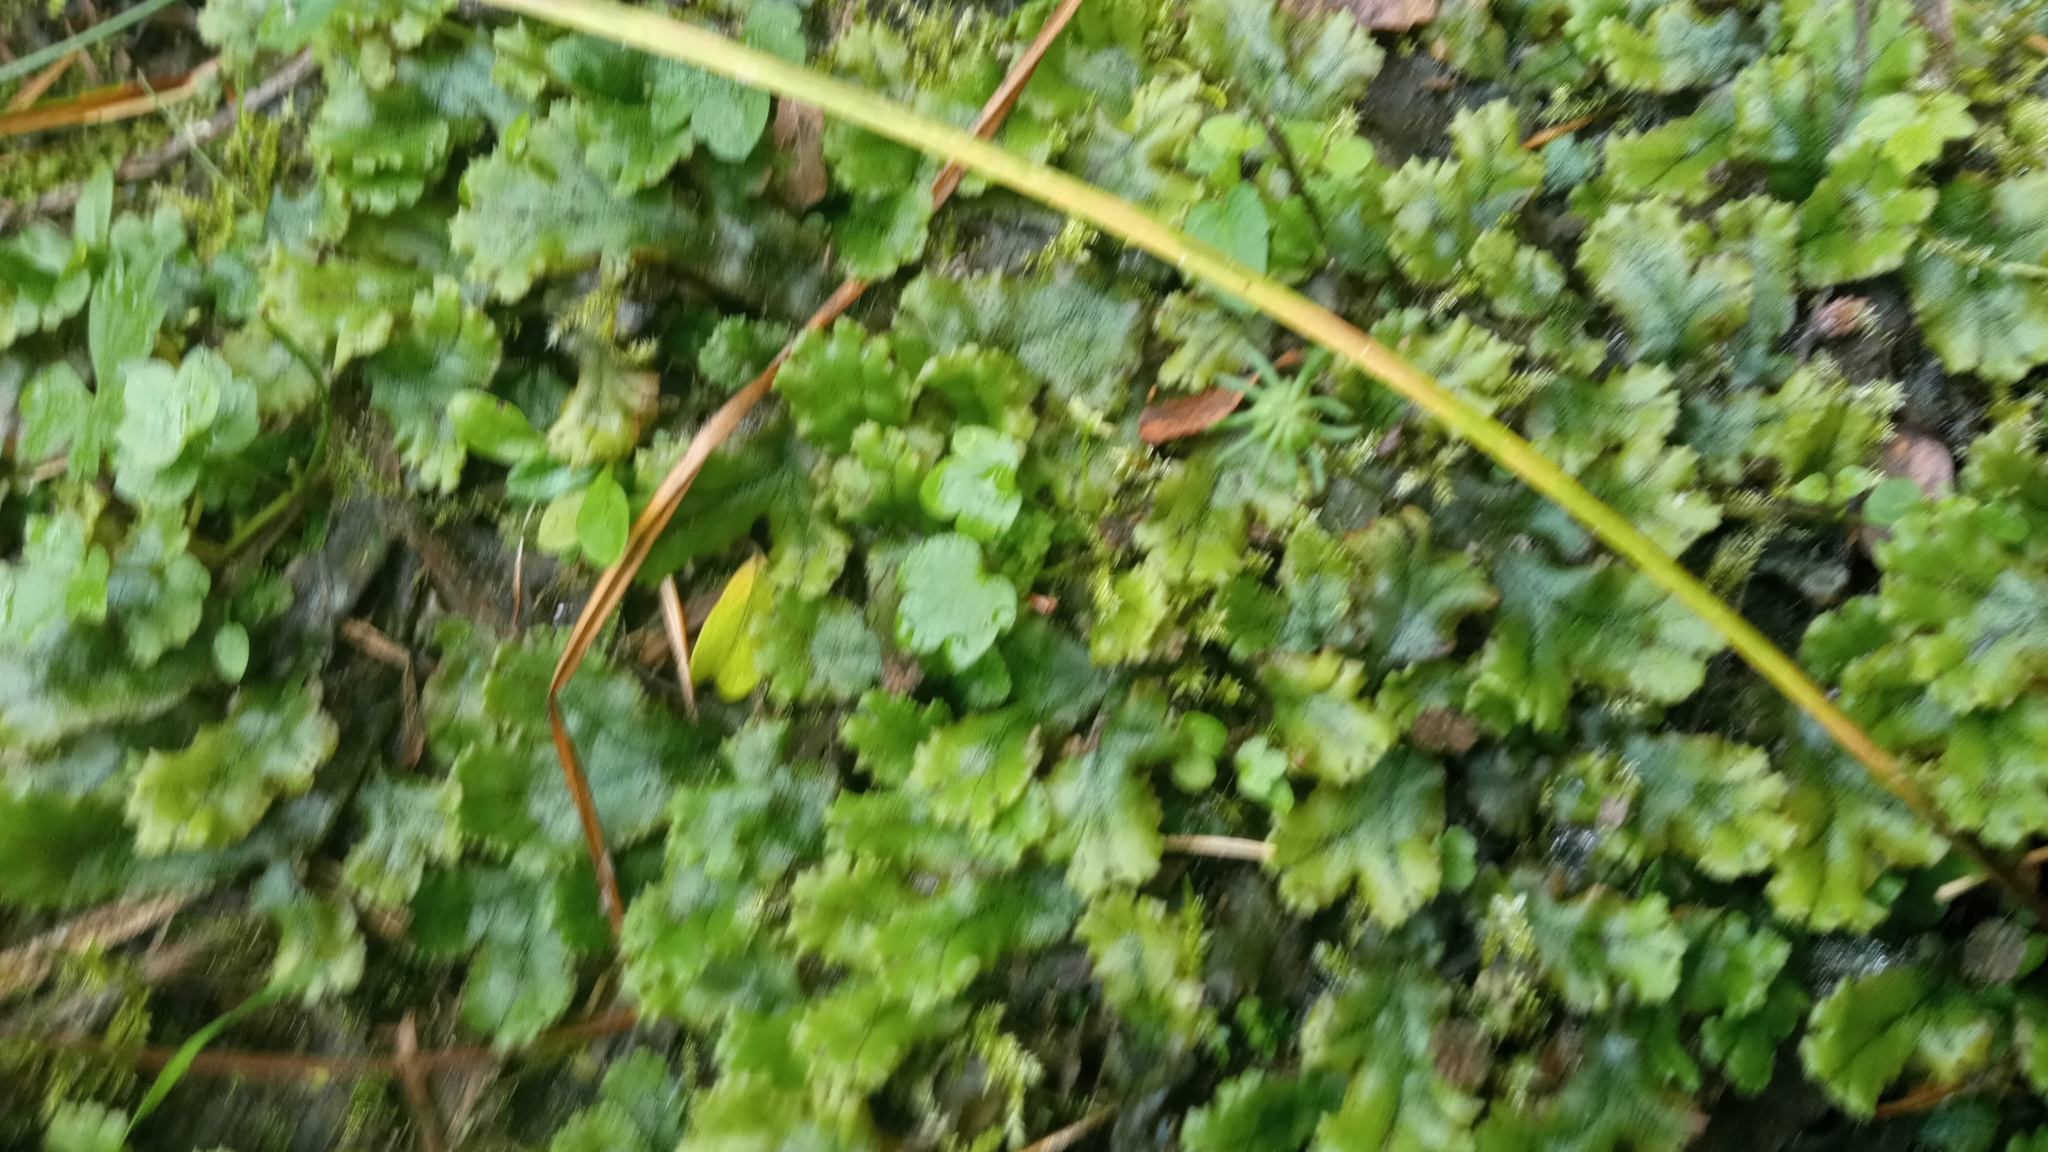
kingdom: Plantae
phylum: Marchantiophyta
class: Marchantiopsida
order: Marchantiales
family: Marchantiaceae
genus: Marchantia
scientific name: Marchantia polymorpha
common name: Common liverwort
